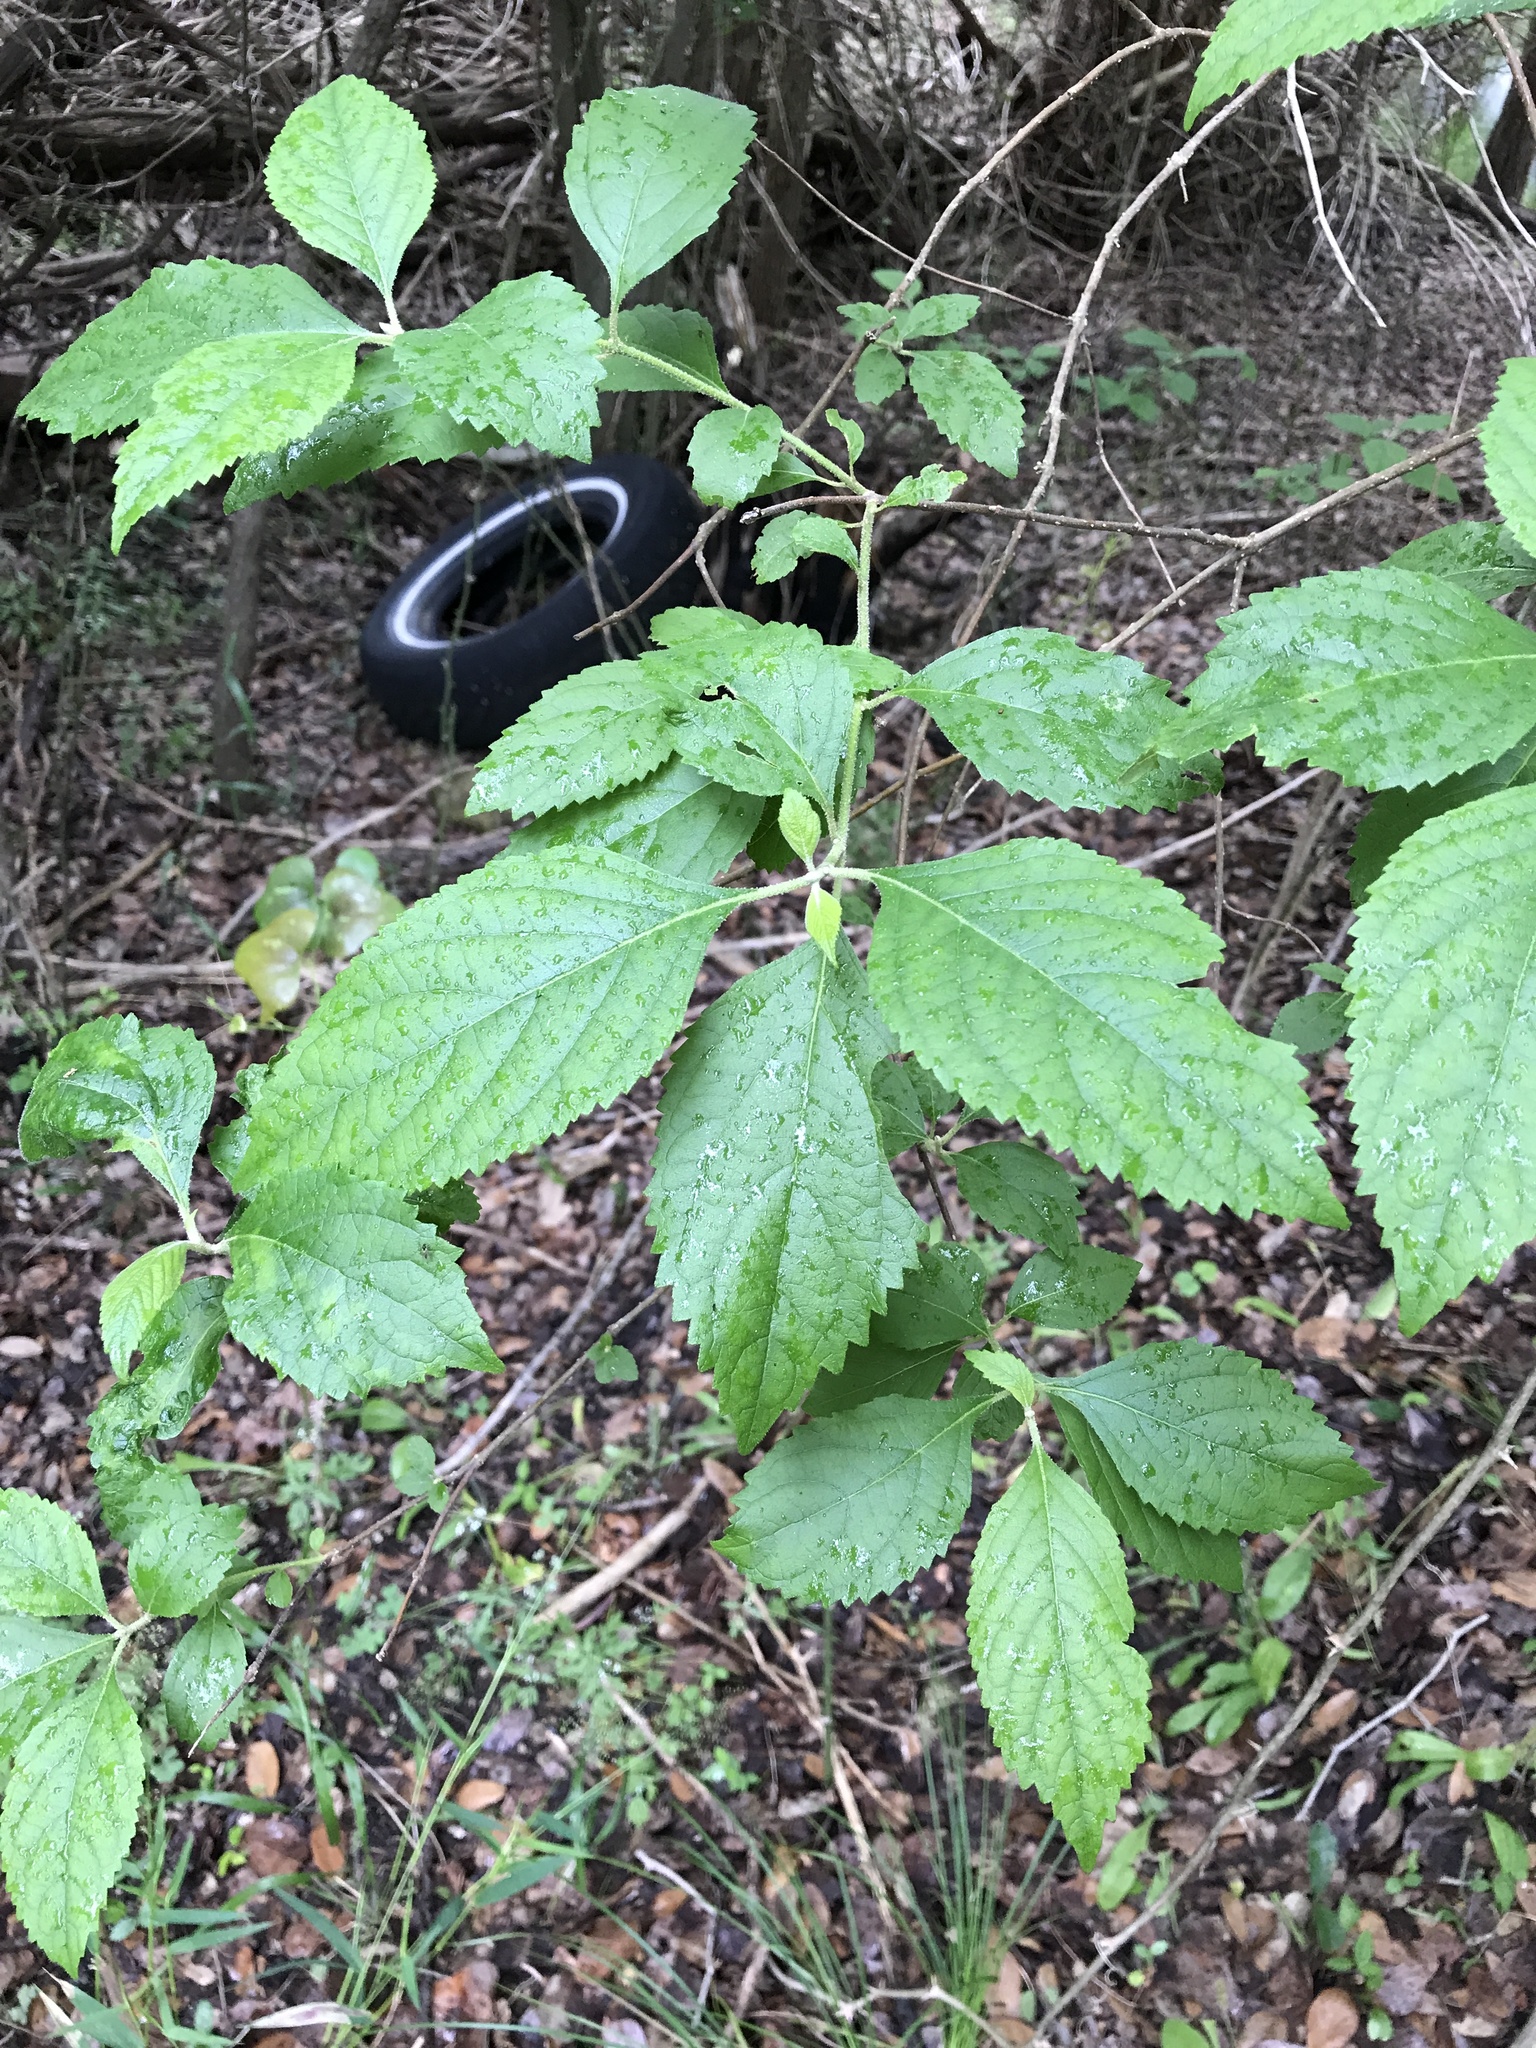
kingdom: Plantae
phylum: Tracheophyta
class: Magnoliopsida
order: Lamiales
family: Lamiaceae
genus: Callicarpa
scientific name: Callicarpa americana
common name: American beautyberry
